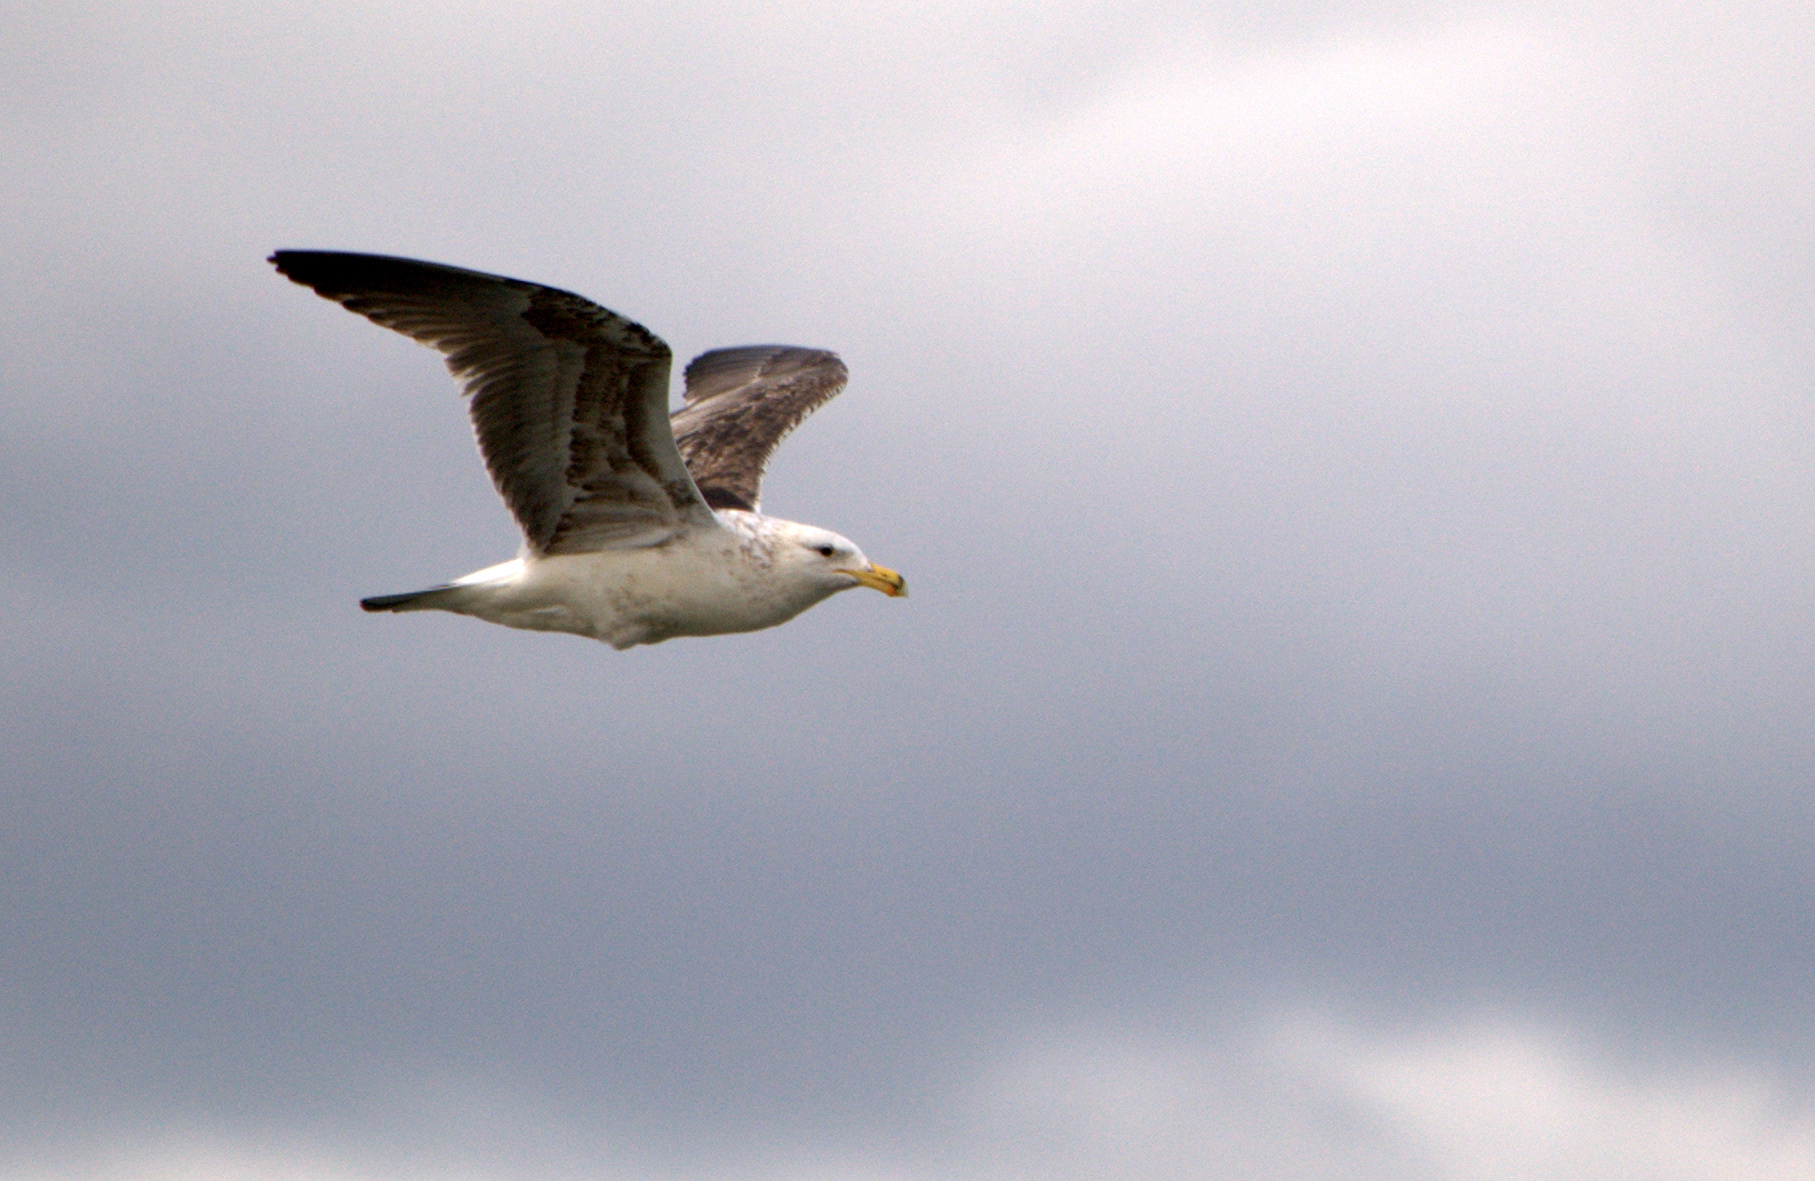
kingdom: Animalia
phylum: Chordata
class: Aves
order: Charadriiformes
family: Laridae
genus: Larus
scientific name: Larus dominicanus
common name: Kelp gull
